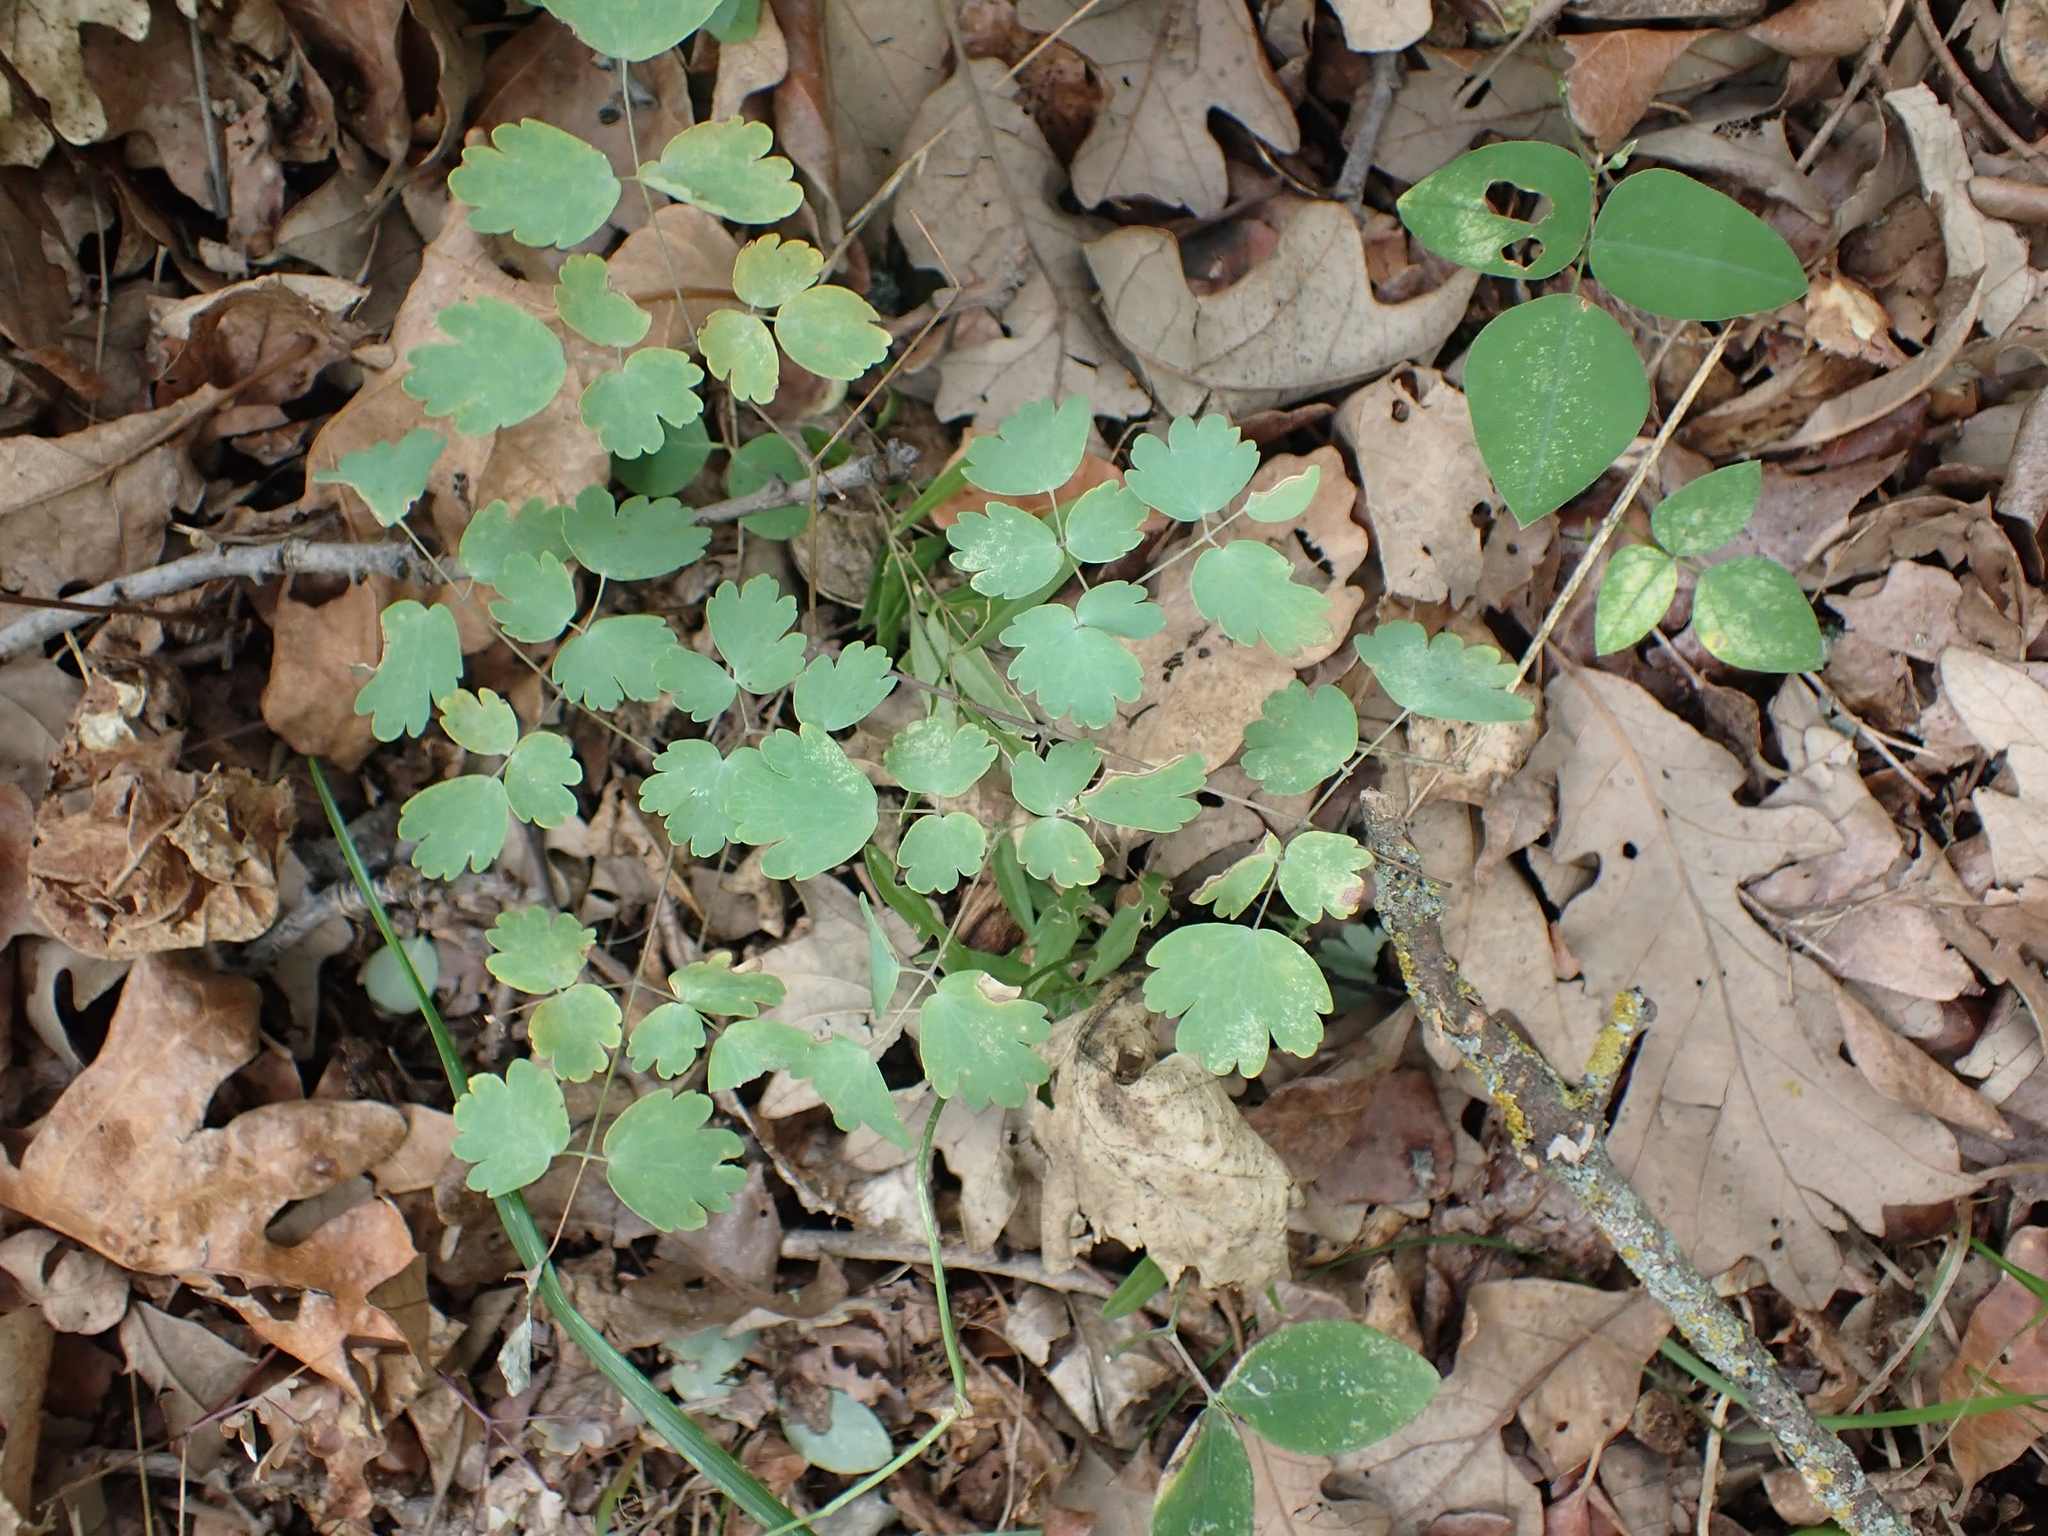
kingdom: Plantae
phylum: Tracheophyta
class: Magnoliopsida
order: Ranunculales
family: Ranunculaceae
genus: Thalictrum
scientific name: Thalictrum venulosum
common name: Early meadow-rue
